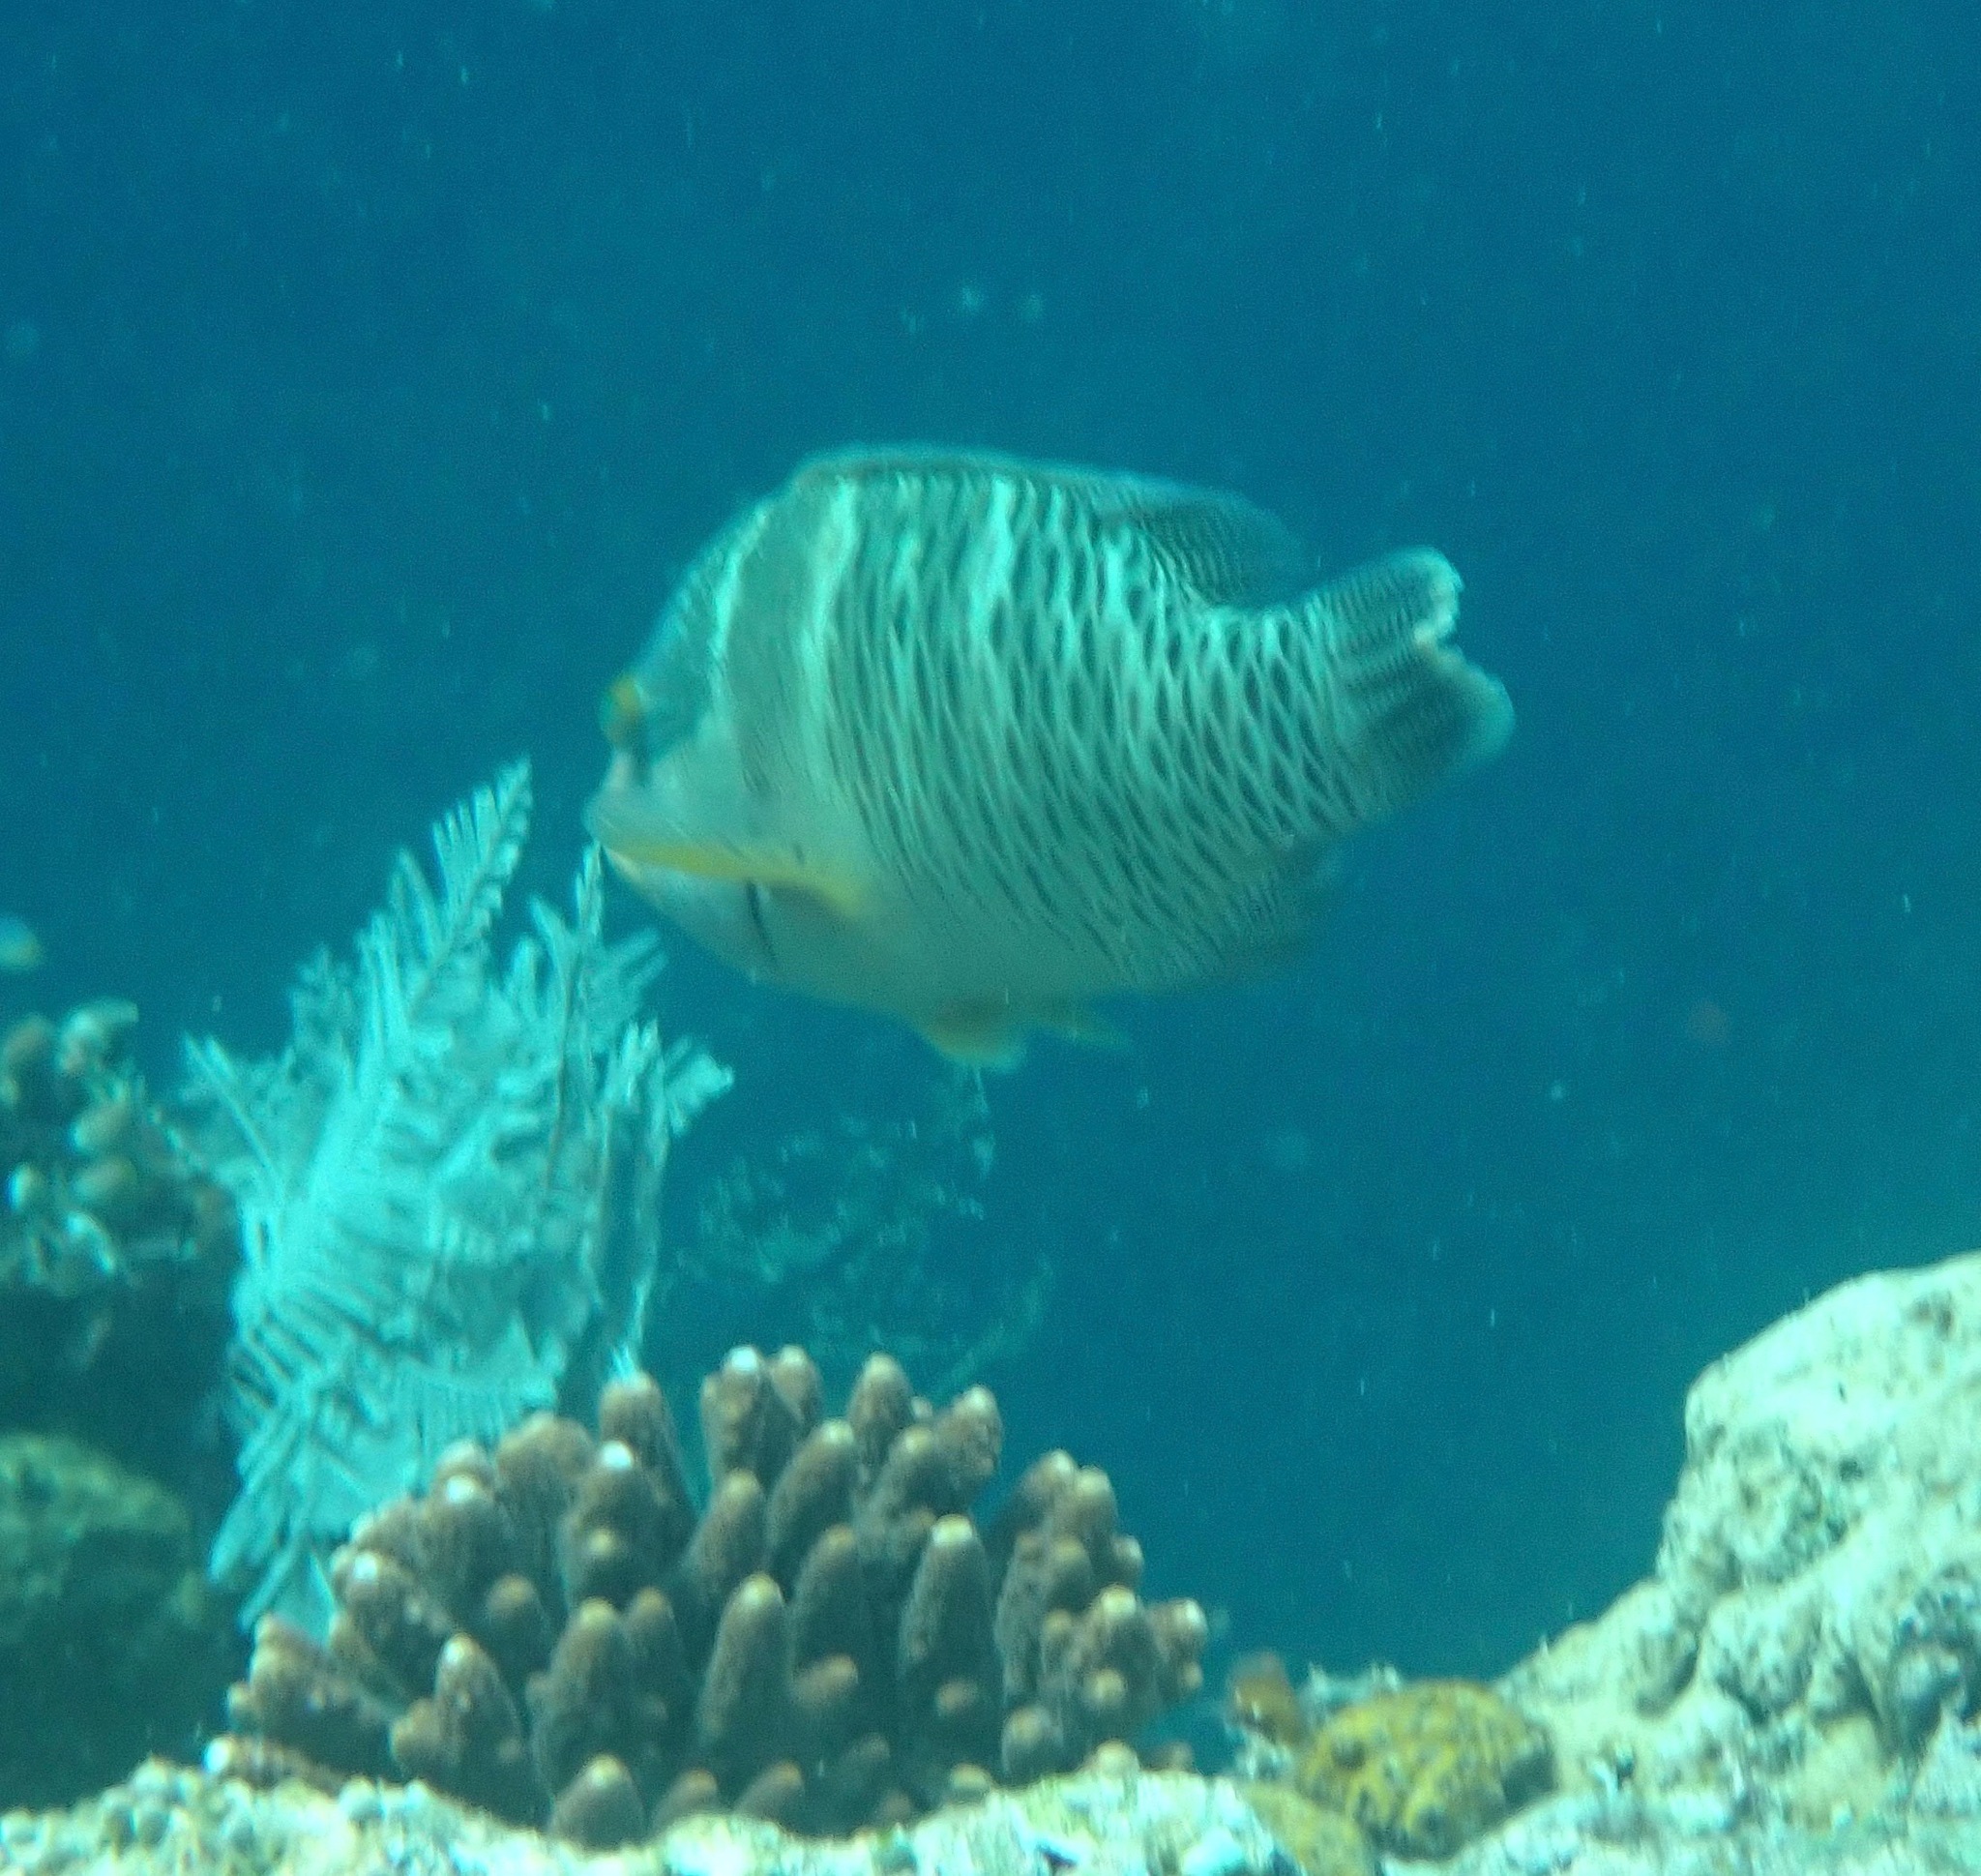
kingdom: Animalia
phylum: Chordata
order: Perciformes
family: Labridae
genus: Cheilinus
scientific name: Cheilinus undulatus
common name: Humphead wrasse
